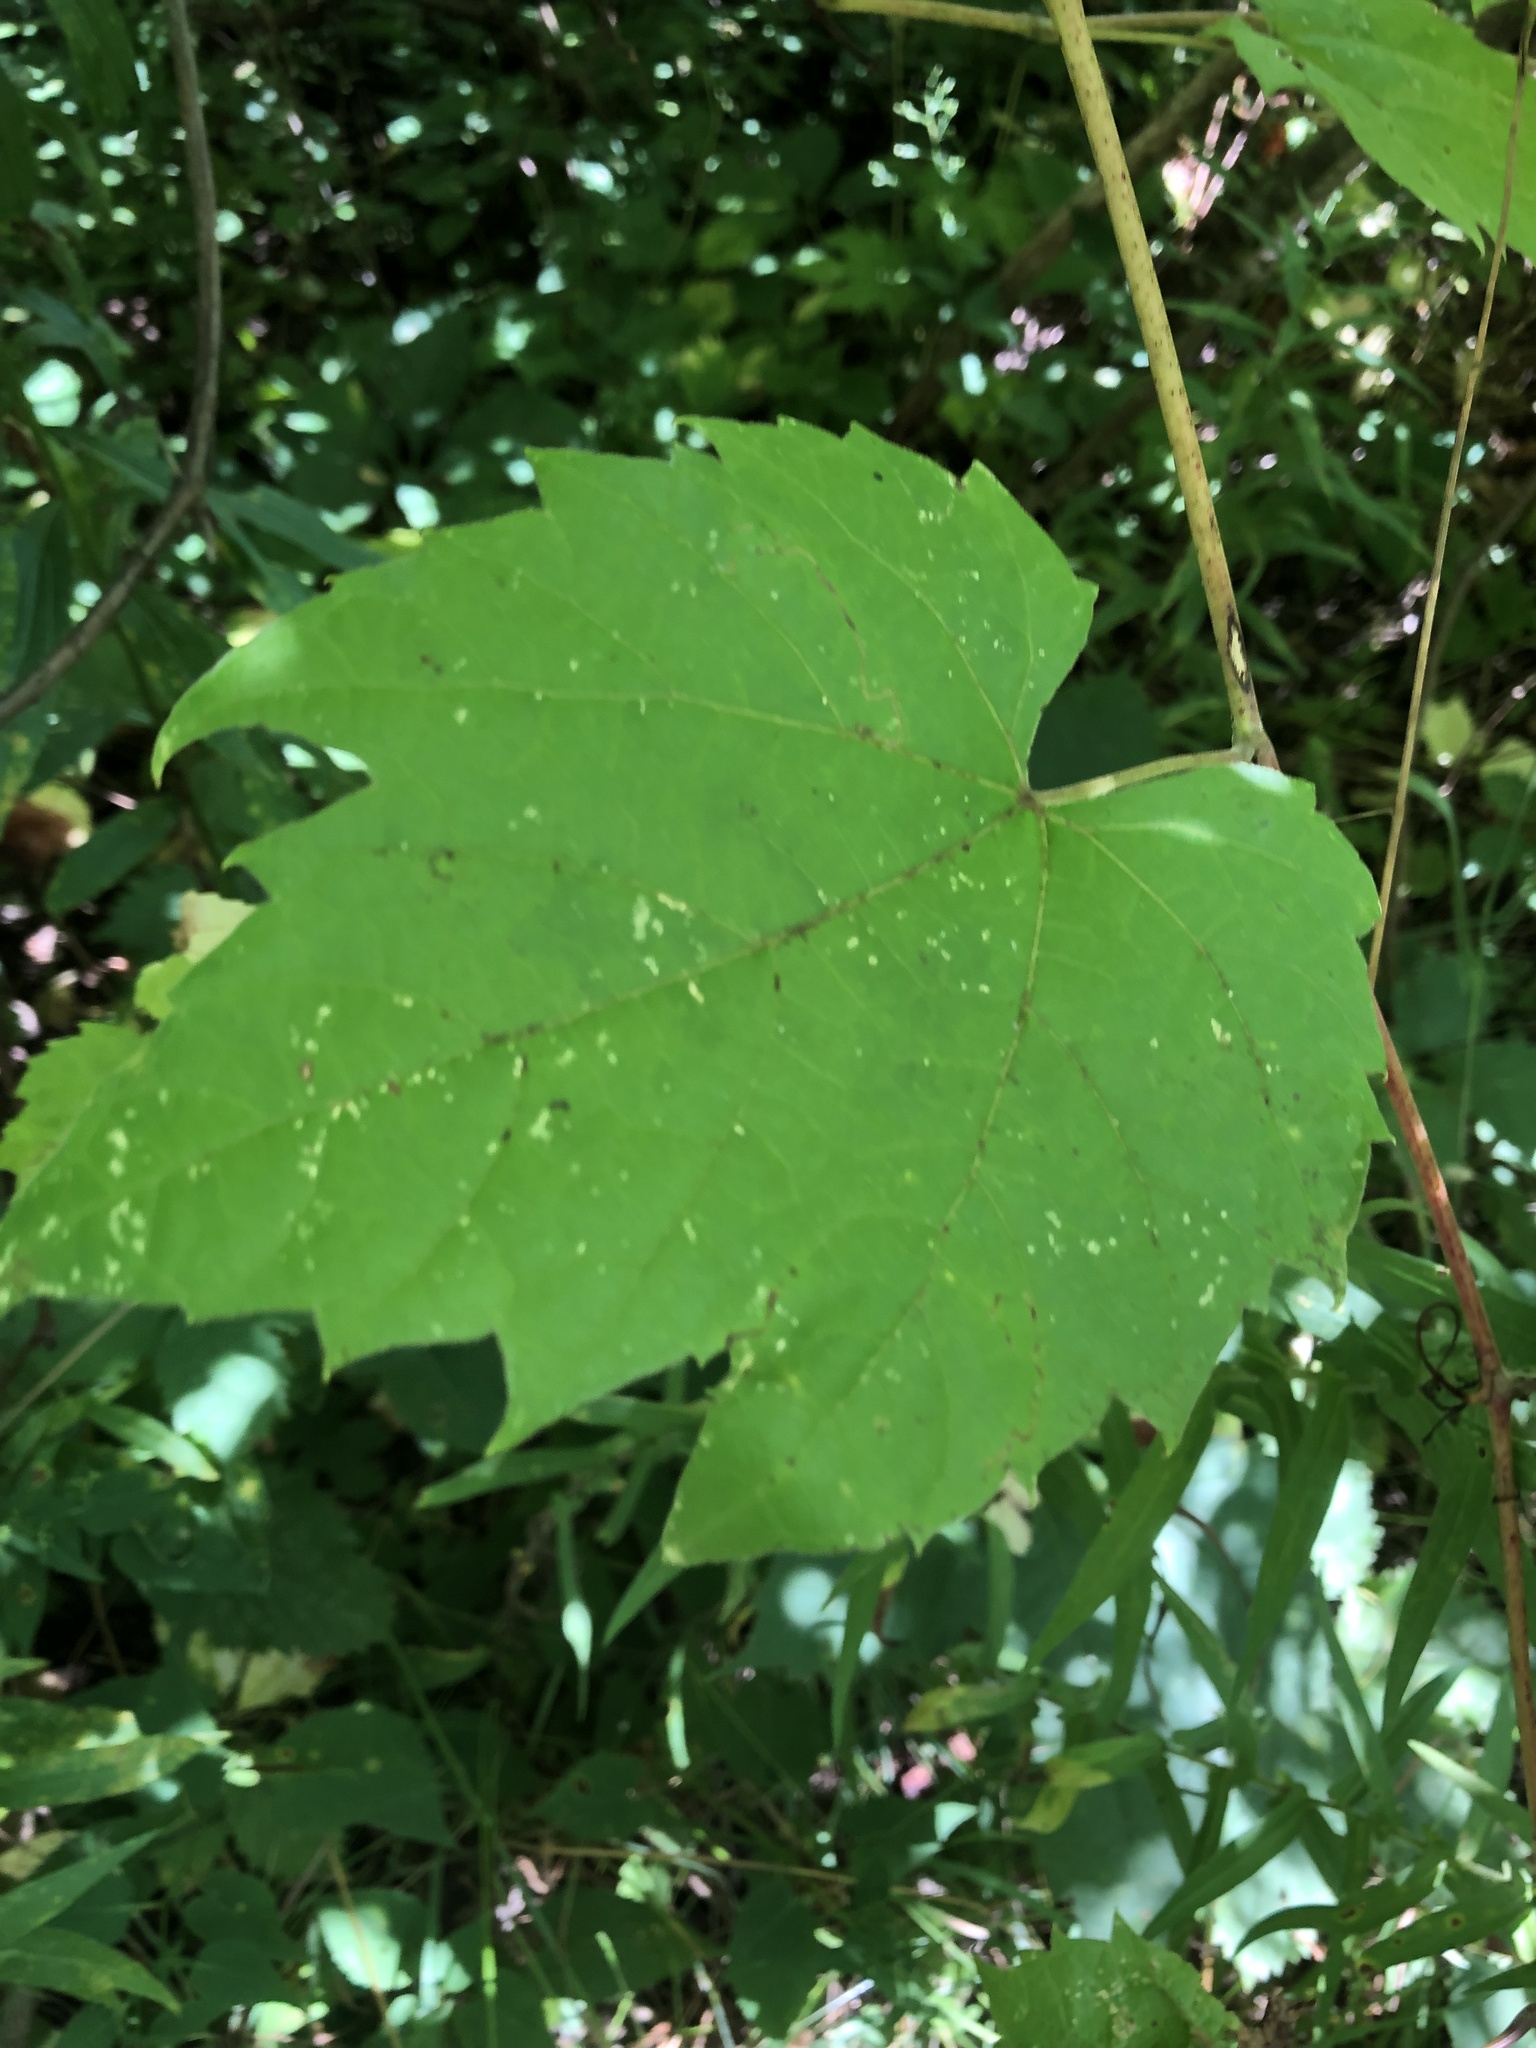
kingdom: Plantae
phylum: Tracheophyta
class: Magnoliopsida
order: Vitales
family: Vitaceae
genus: Vitis
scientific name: Vitis riparia
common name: Frost grape
